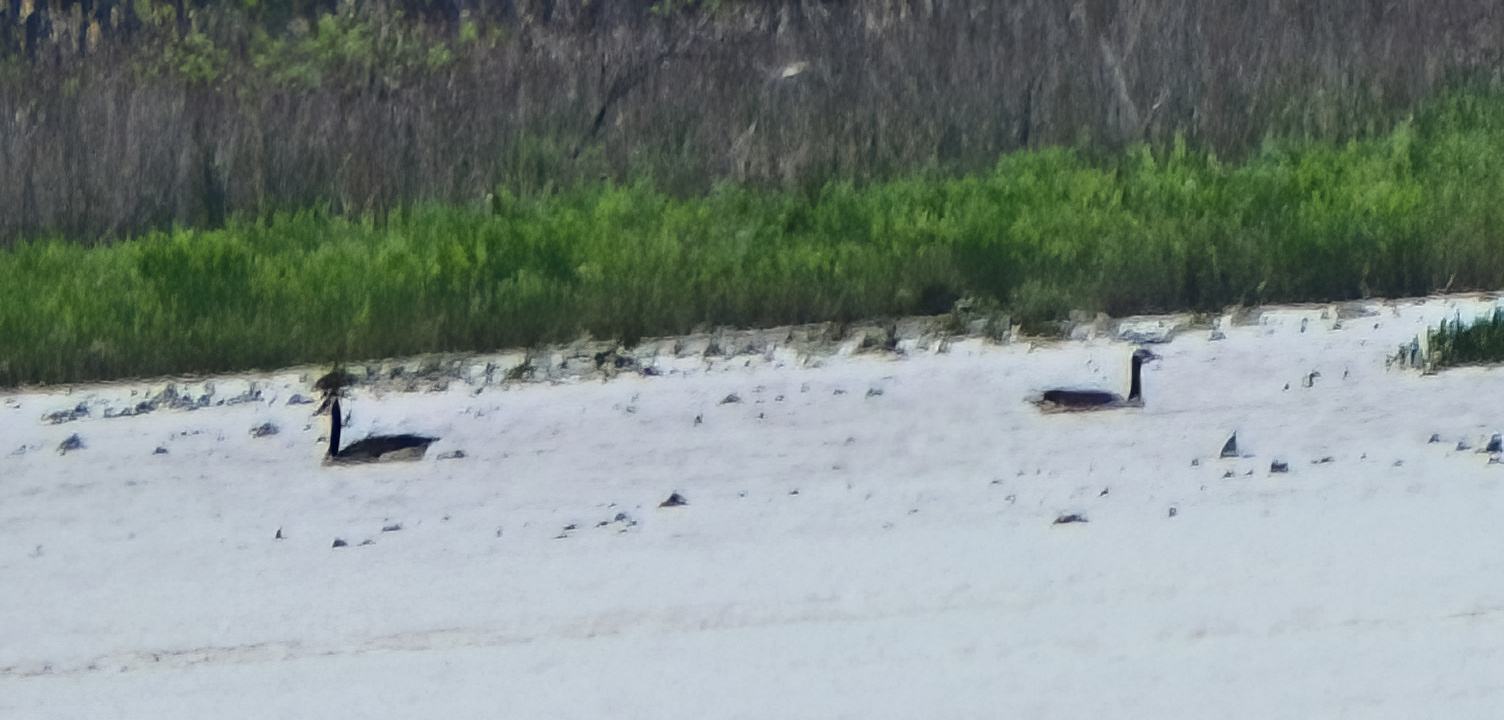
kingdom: Animalia
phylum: Chordata
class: Aves
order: Anseriformes
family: Anatidae
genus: Branta
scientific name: Branta canadensis
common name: Canada goose
